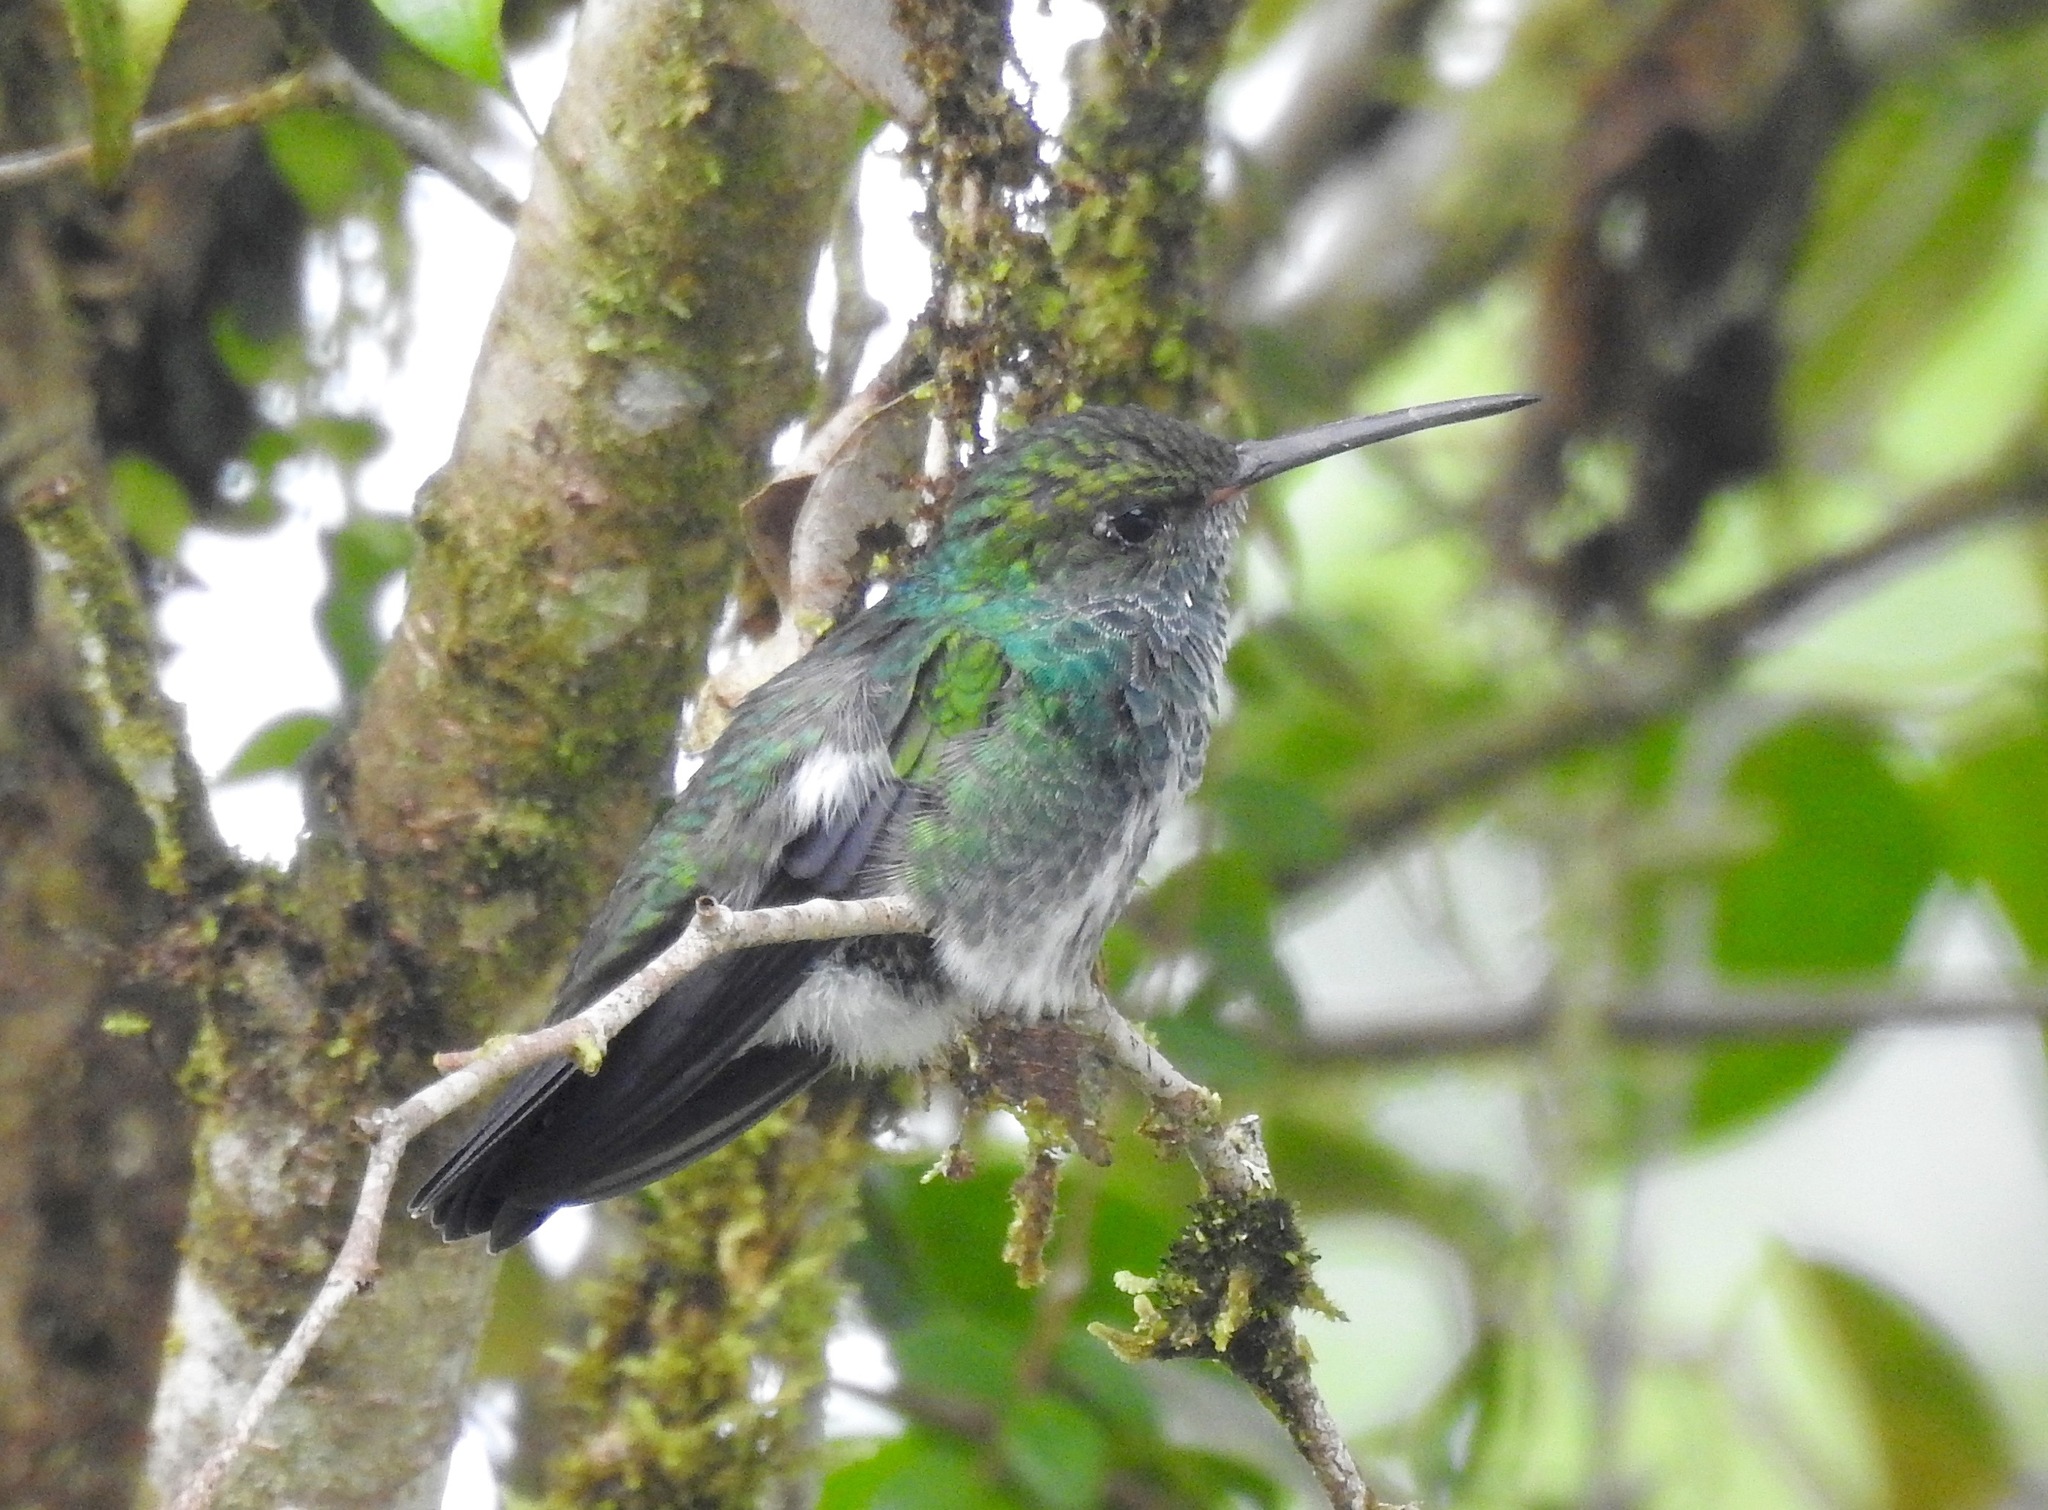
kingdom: Animalia
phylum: Chordata
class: Aves
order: Apodiformes
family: Trochilidae
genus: Chionomesa
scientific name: Chionomesa fimbriata
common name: Glittering-throated emerald
